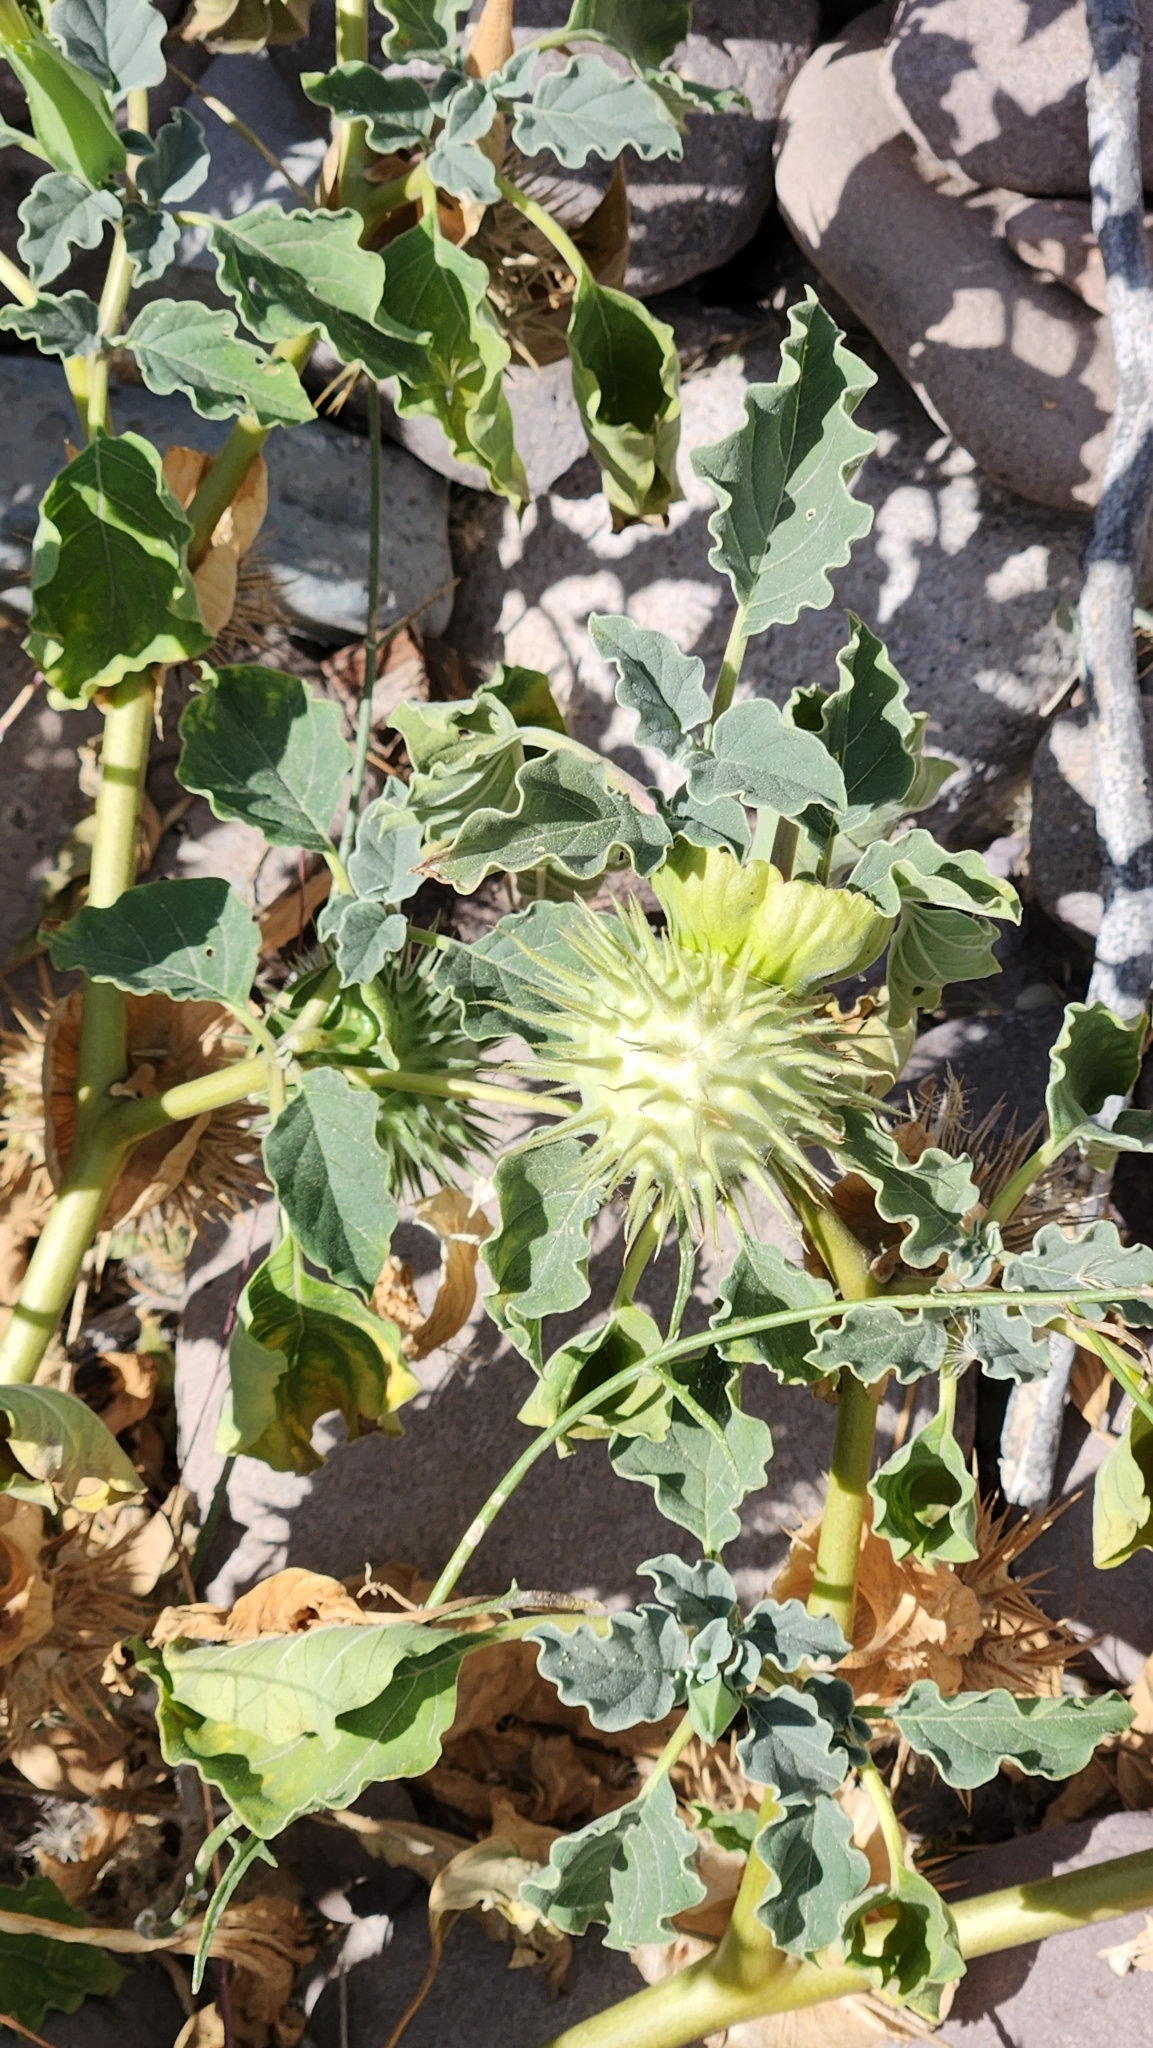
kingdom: Plantae
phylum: Tracheophyta
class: Magnoliopsida
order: Solanales
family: Solanaceae
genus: Datura
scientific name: Datura discolor
